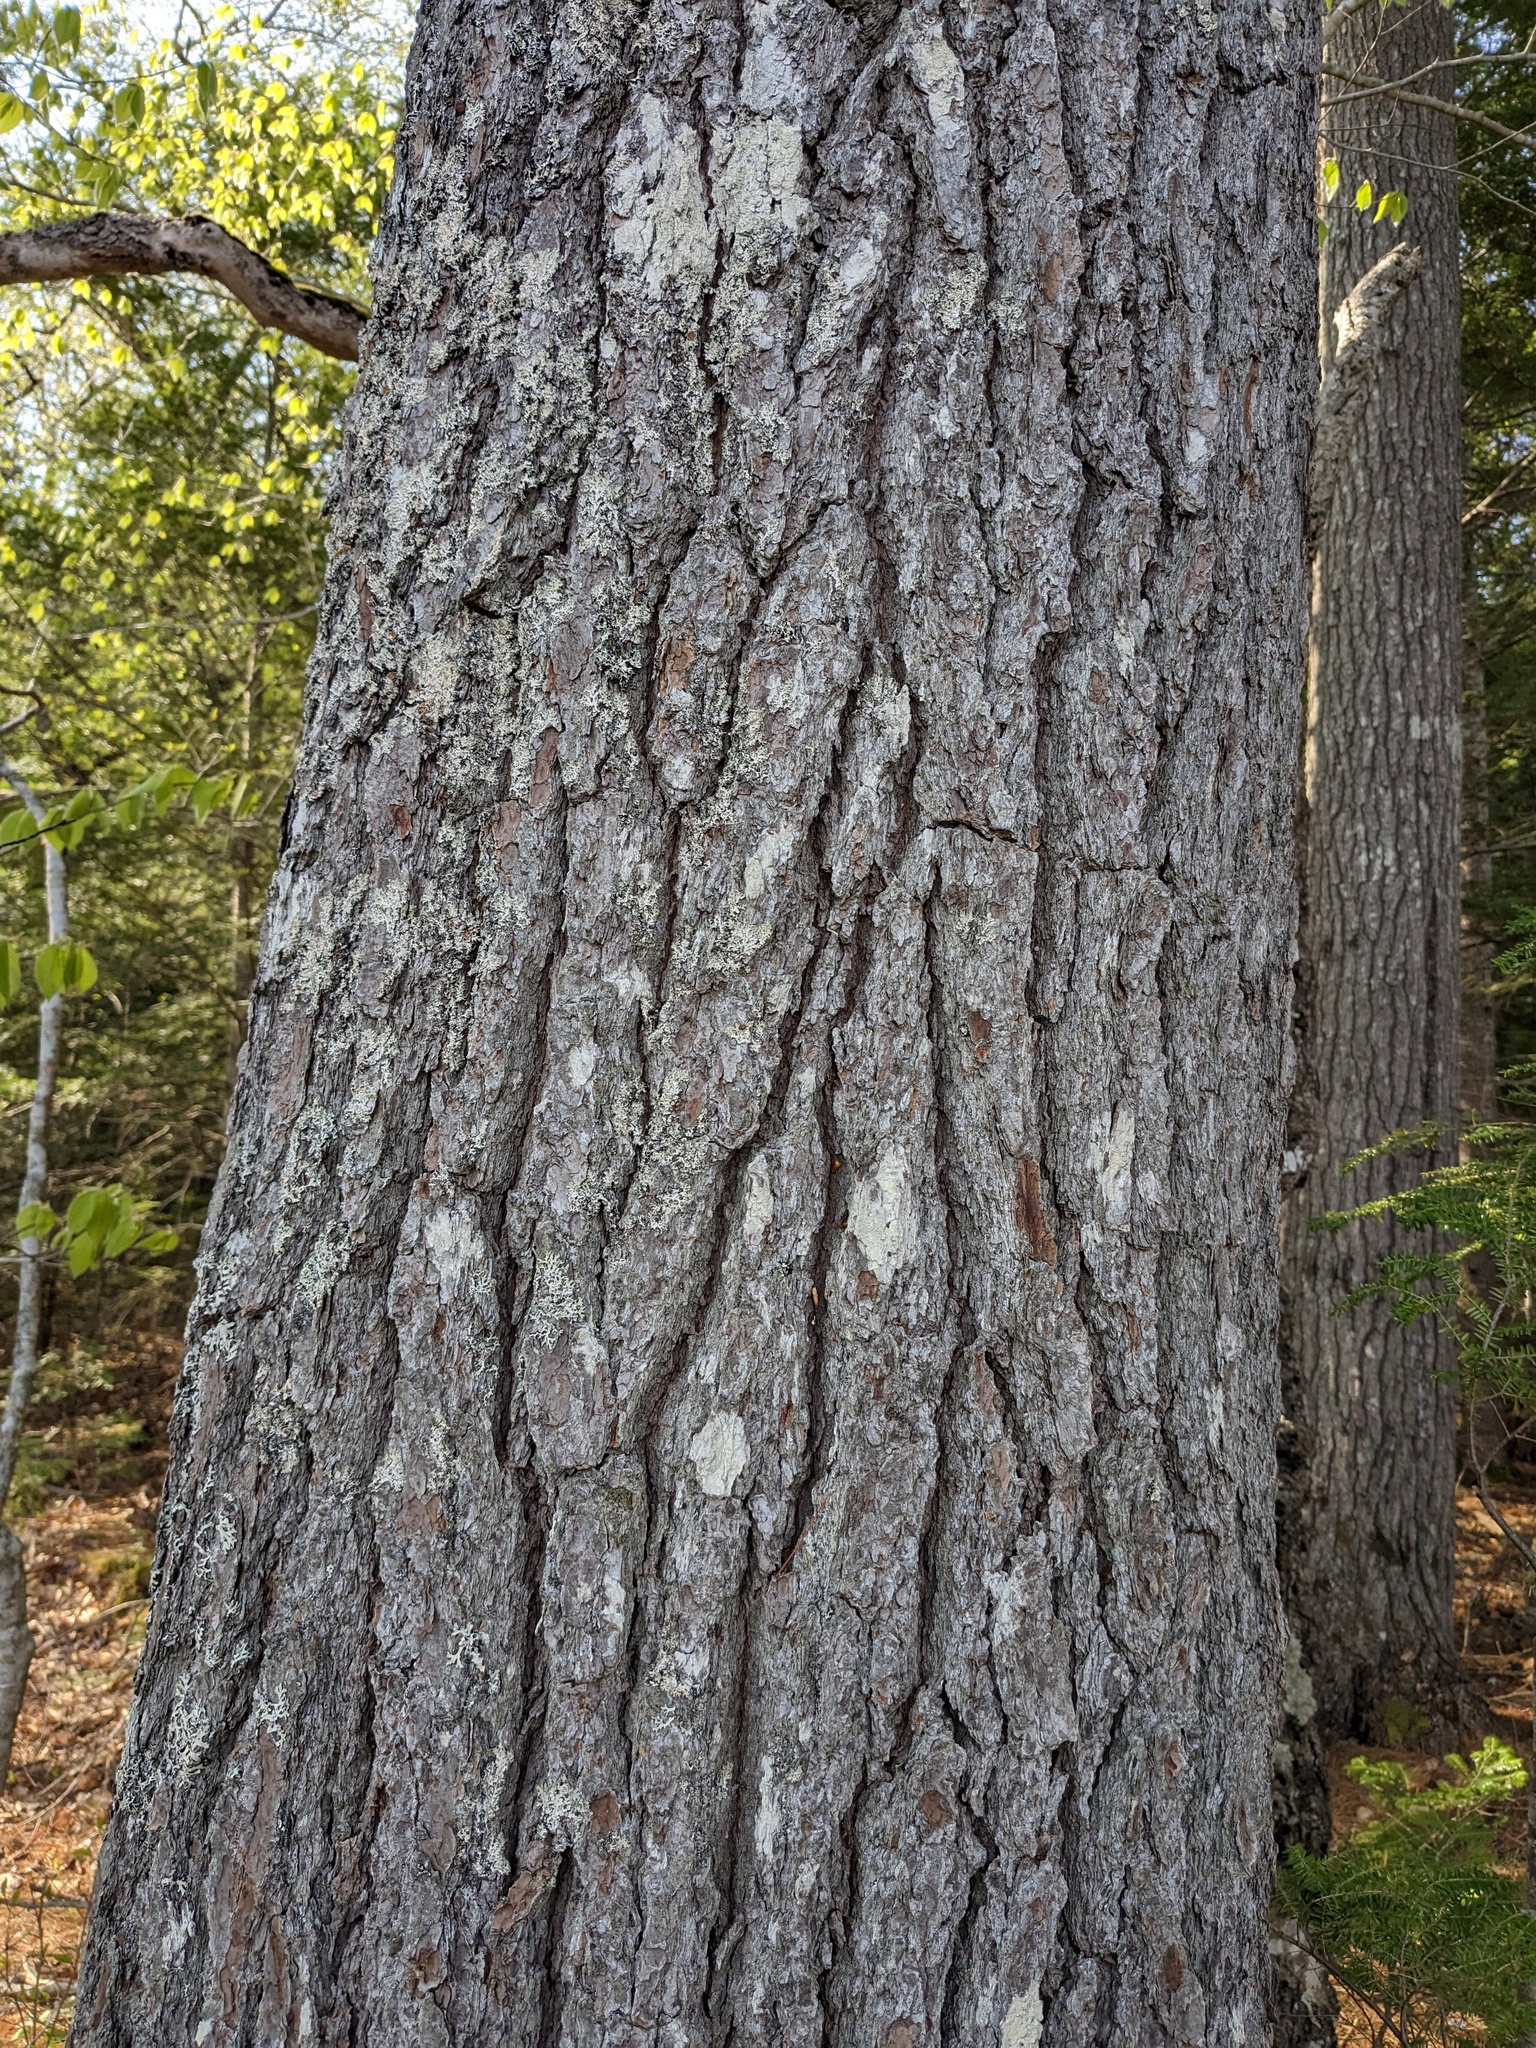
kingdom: Plantae
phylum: Tracheophyta
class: Pinopsida
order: Pinales
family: Pinaceae
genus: Pinus
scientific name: Pinus strobus
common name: Weymouth pine
